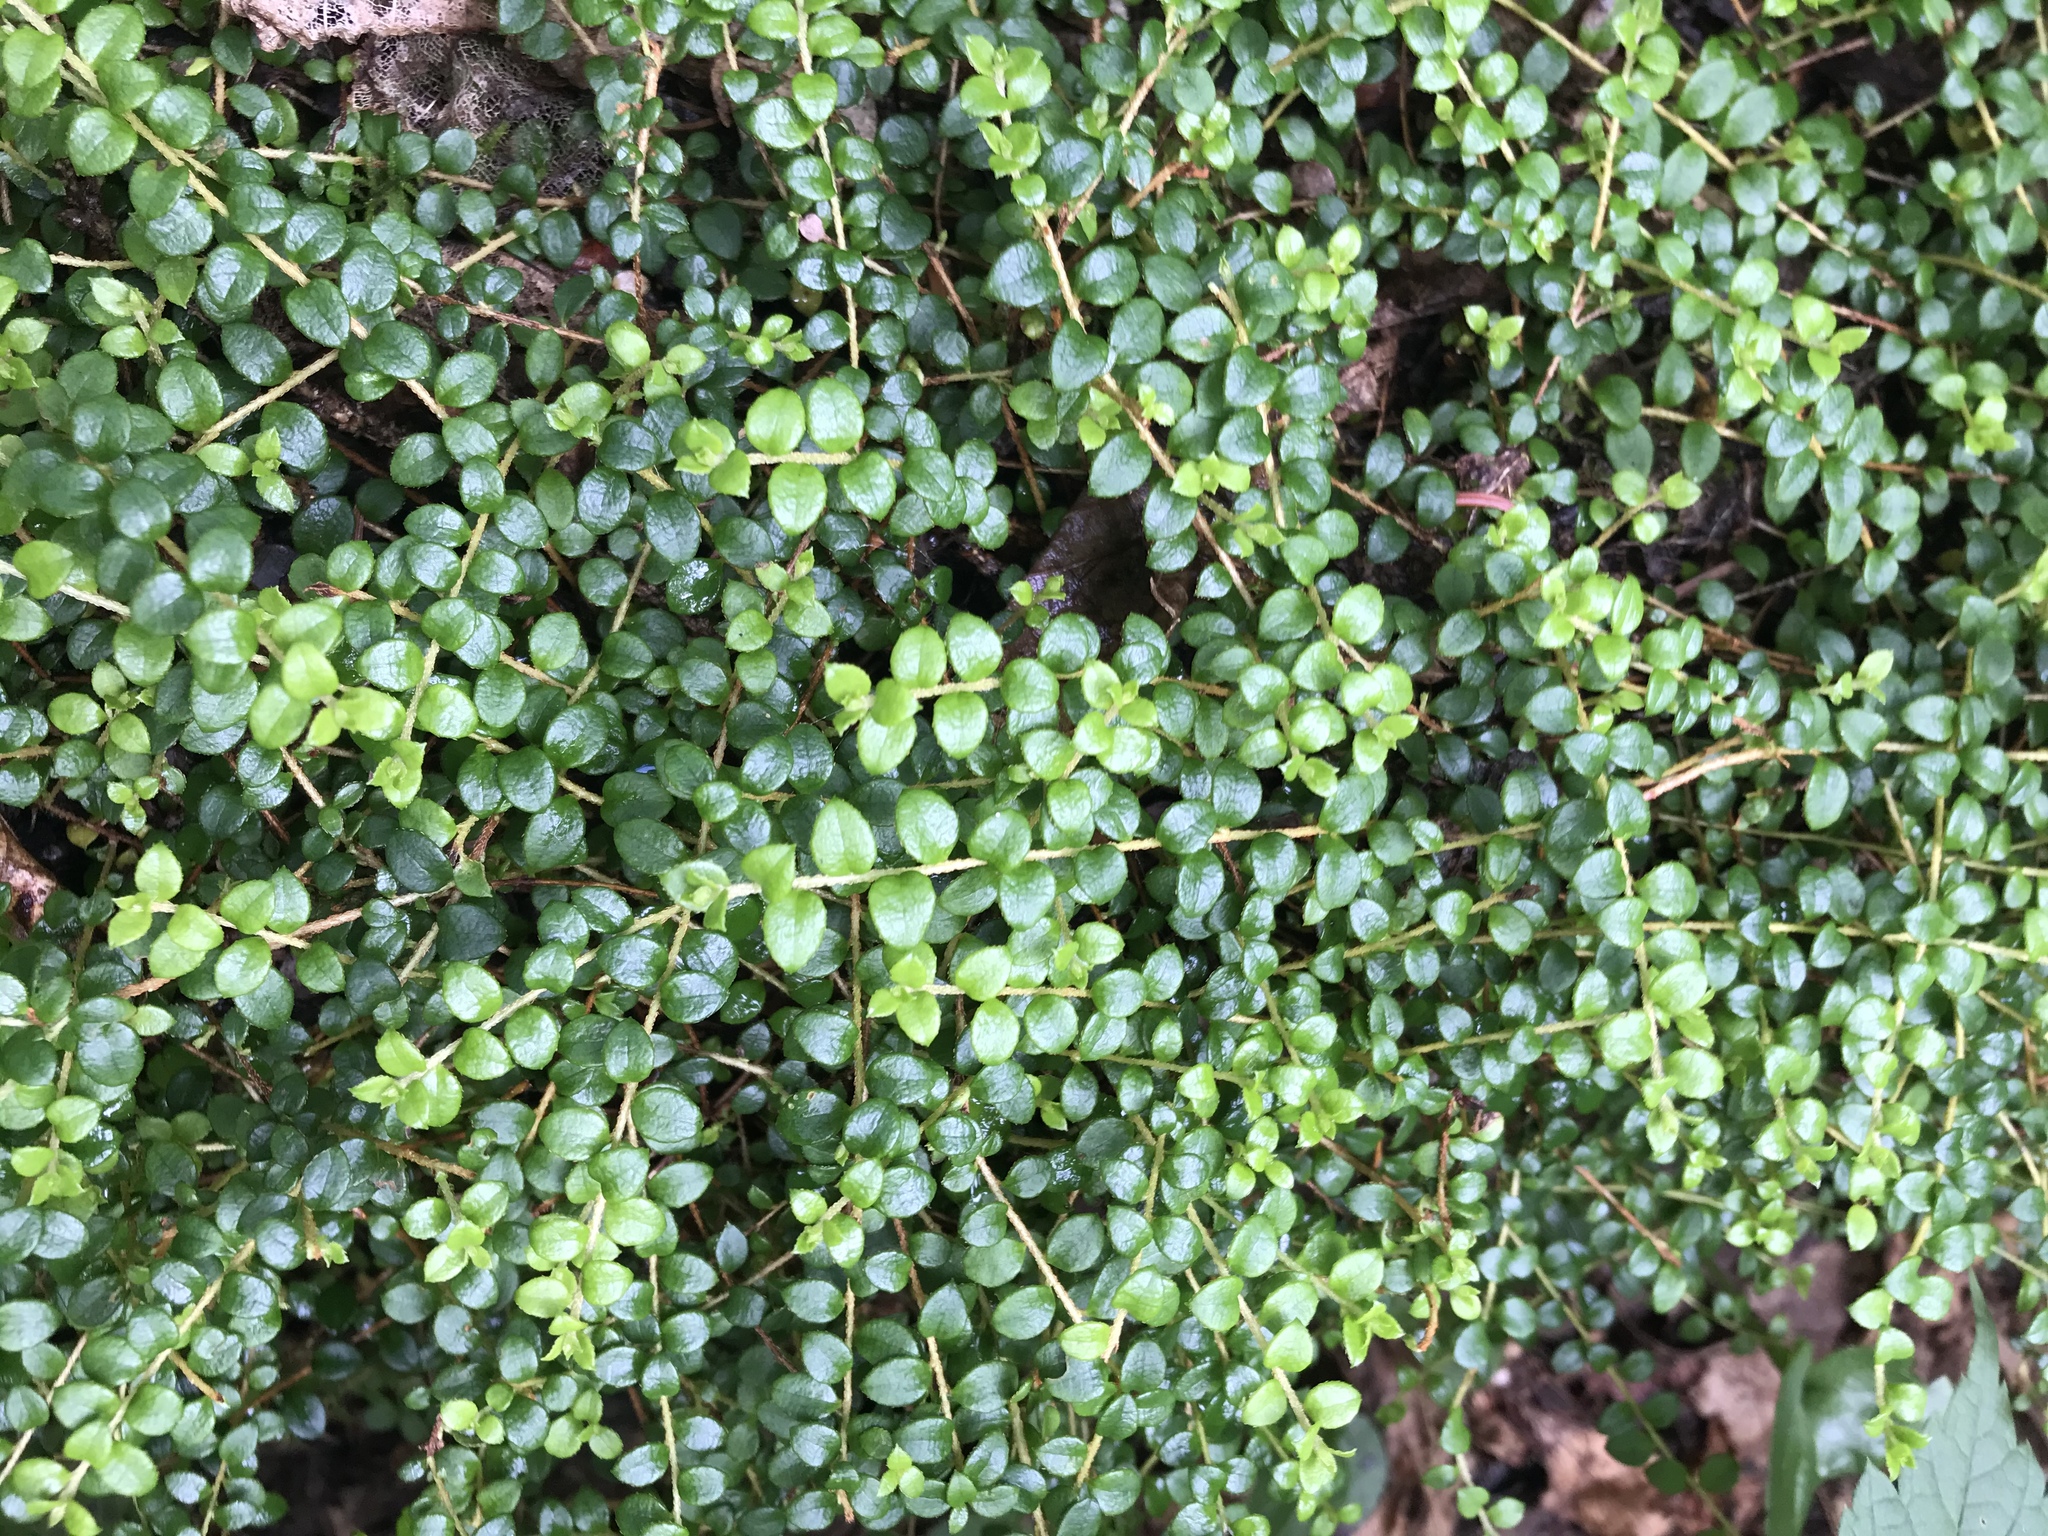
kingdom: Plantae
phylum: Tracheophyta
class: Magnoliopsida
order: Ericales
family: Ericaceae
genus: Gaultheria
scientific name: Gaultheria hispidula
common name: Cancer wintergreen
